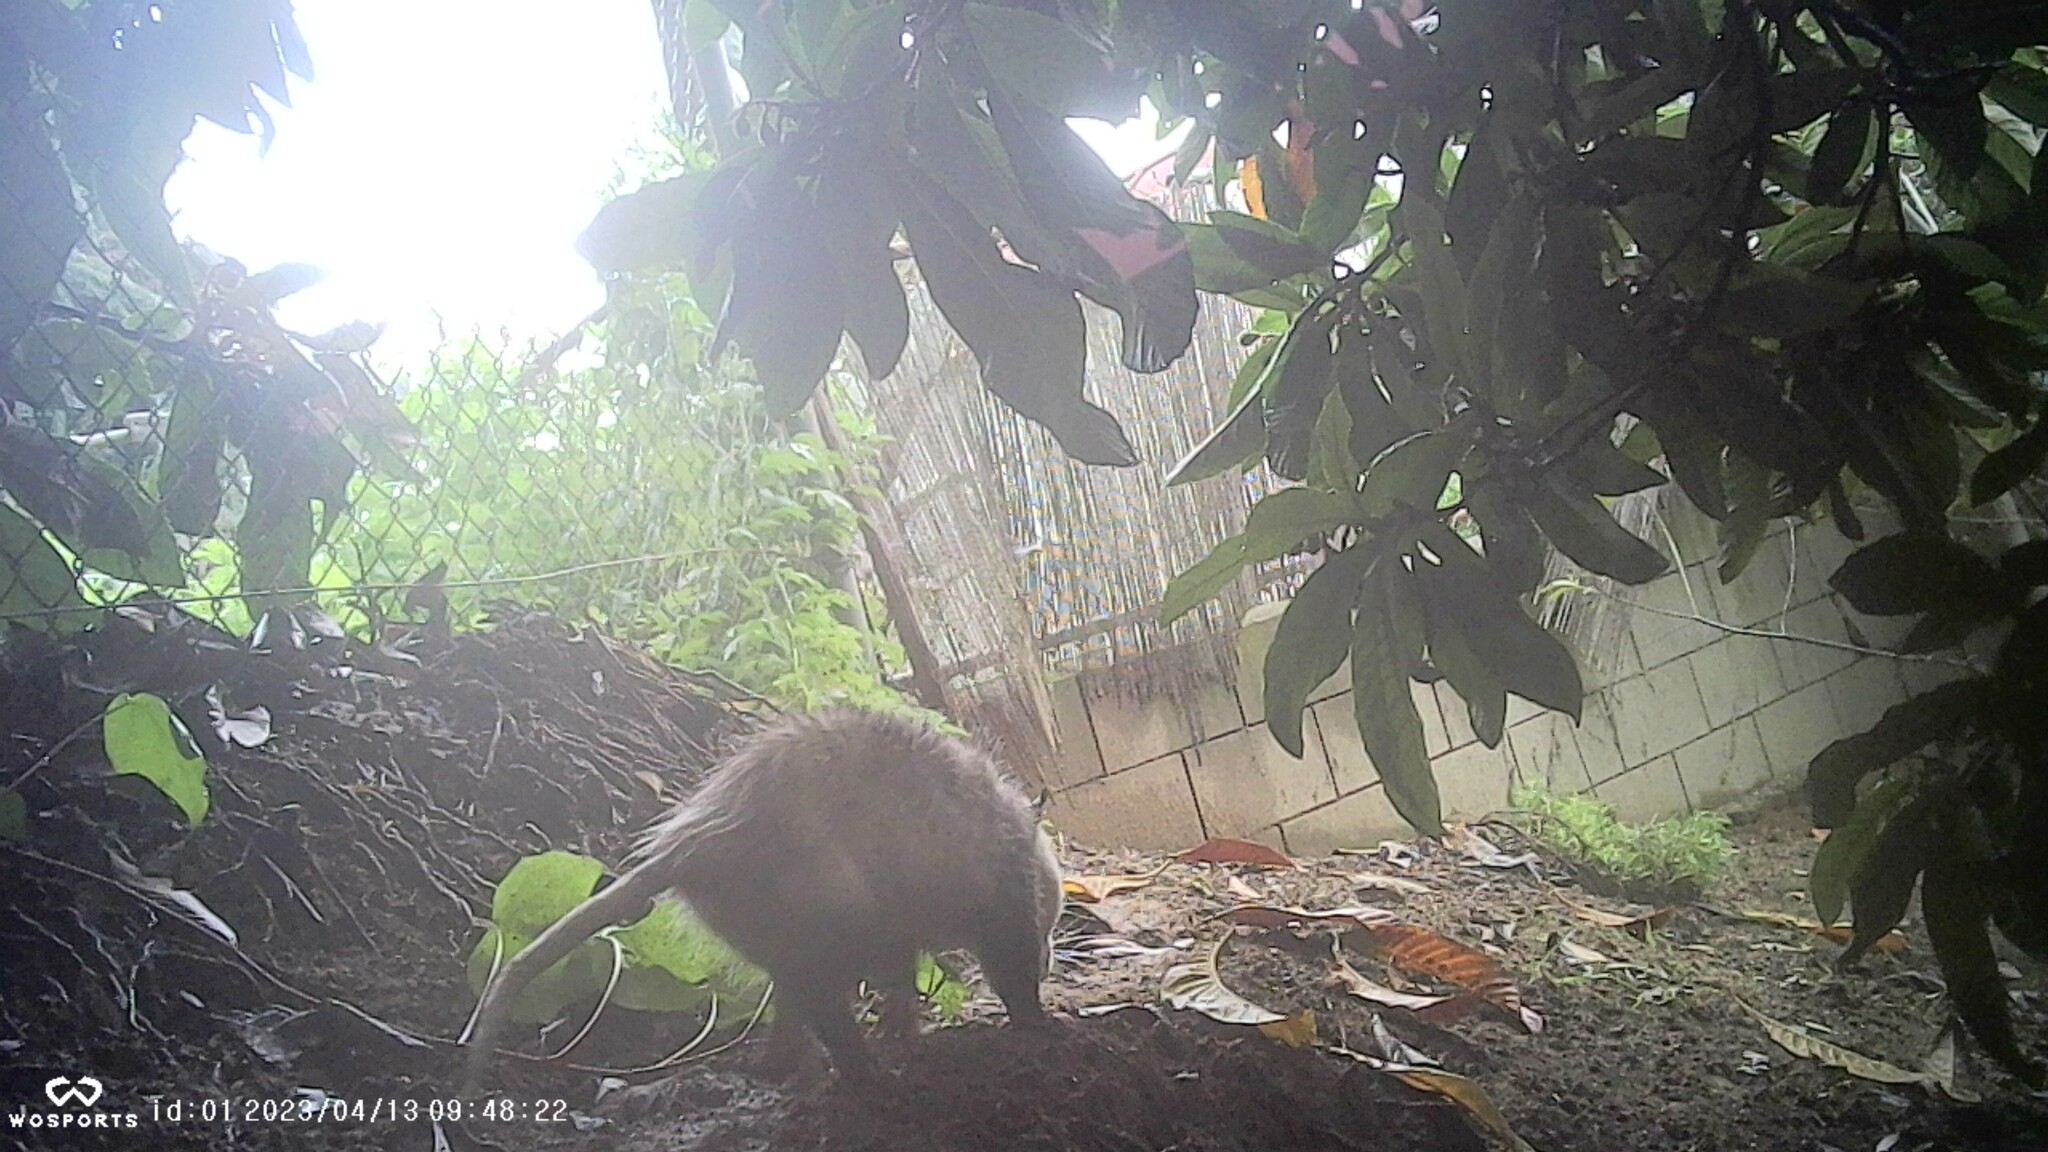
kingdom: Animalia
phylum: Chordata
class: Mammalia
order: Didelphimorphia
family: Didelphidae
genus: Didelphis
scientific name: Didelphis virginiana
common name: Virginia opossum
